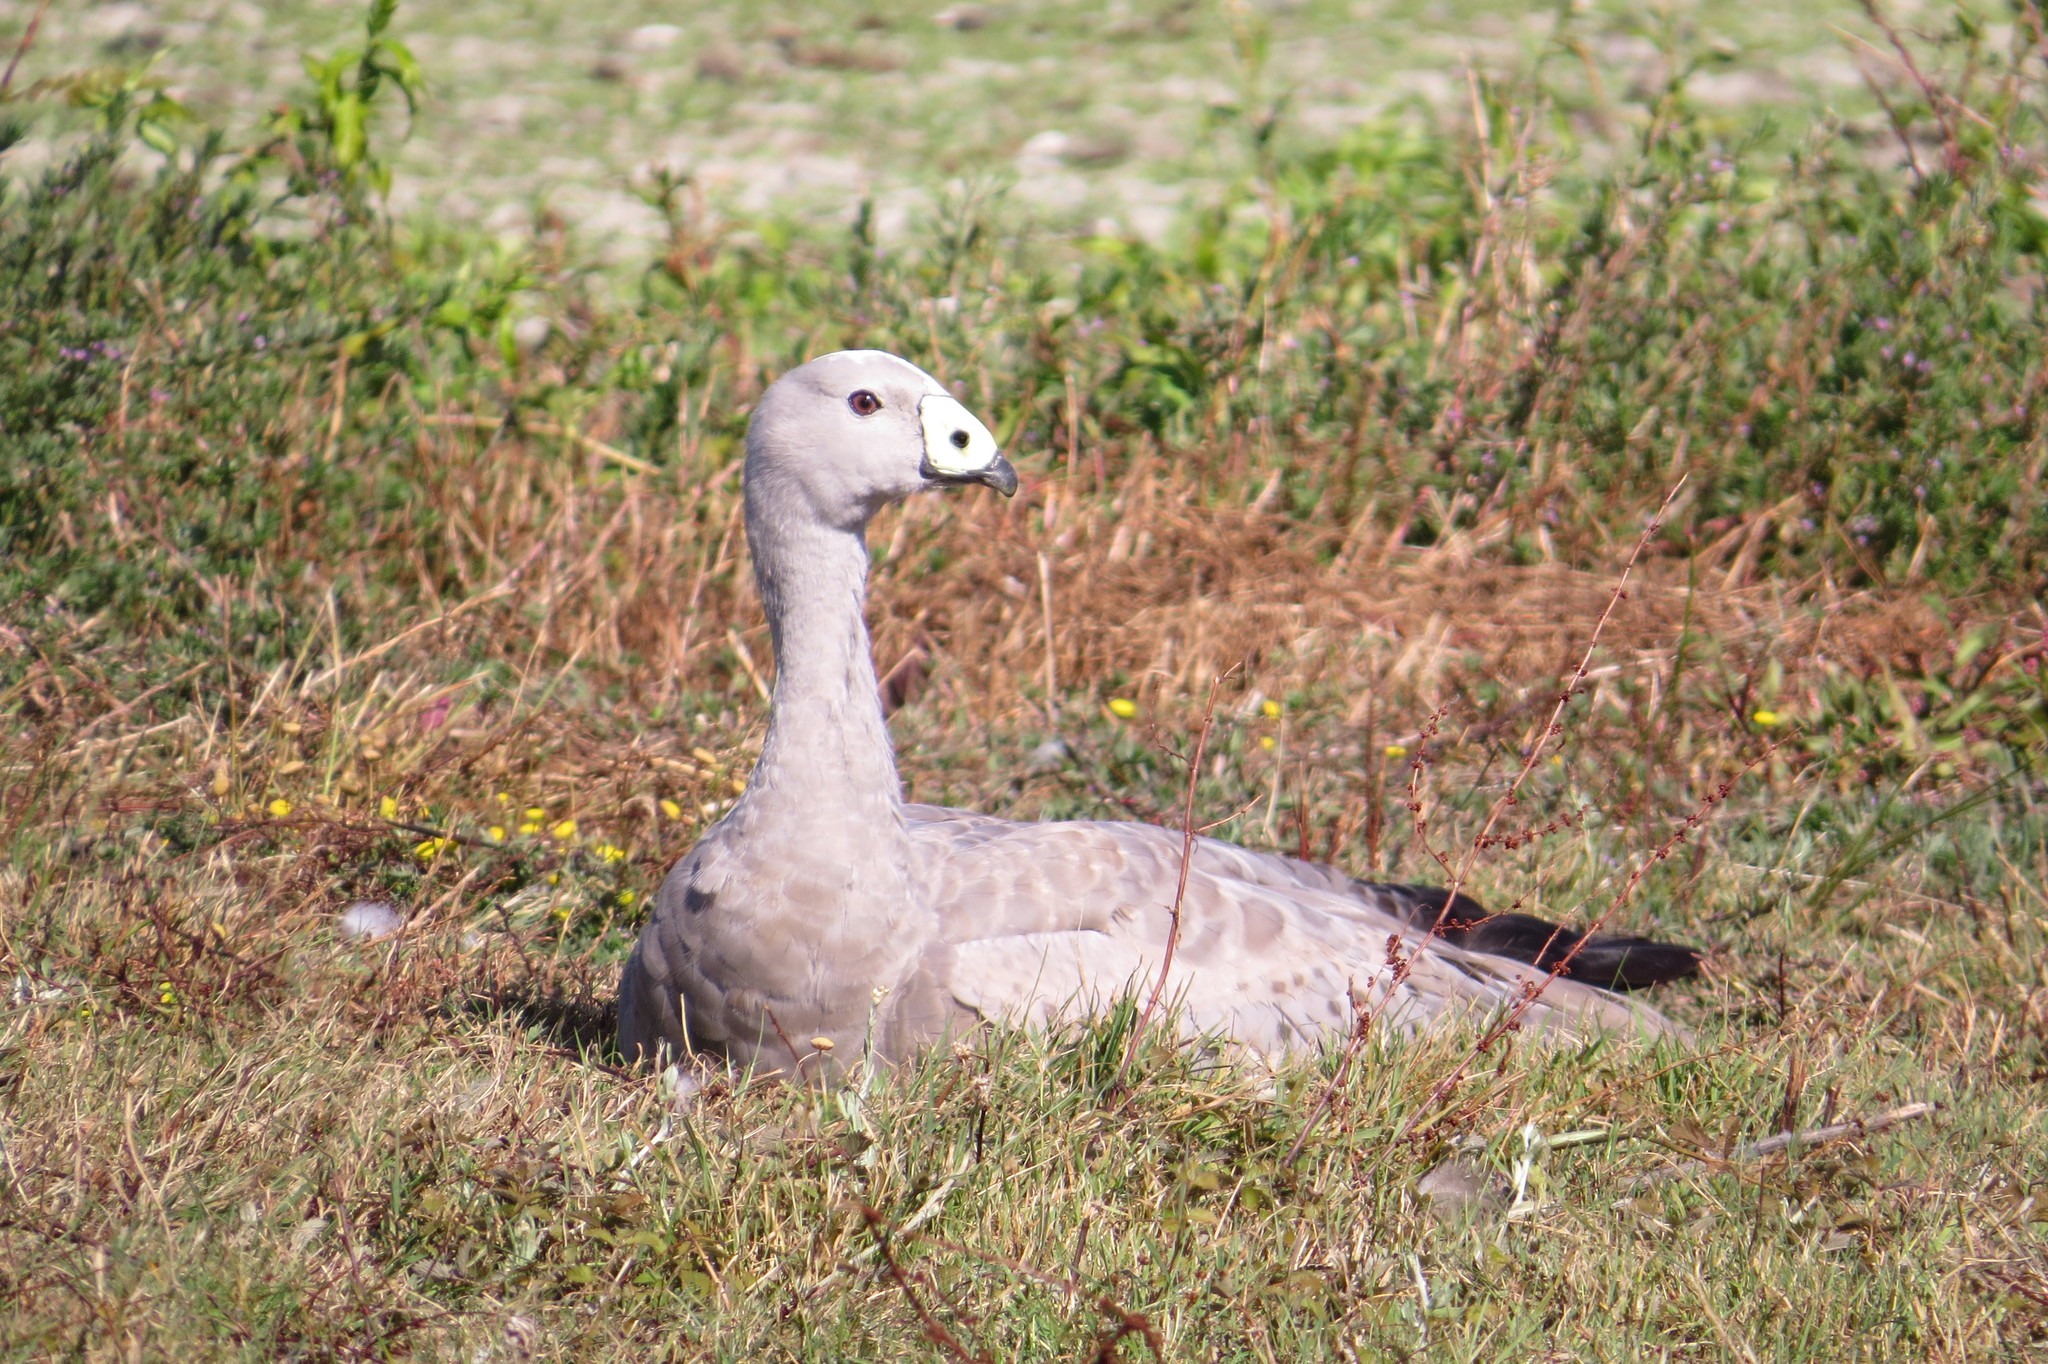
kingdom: Animalia
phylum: Chordata
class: Aves
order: Anseriformes
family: Anatidae
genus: Cereopsis
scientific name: Cereopsis novaehollandiae
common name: Cape barren goose
